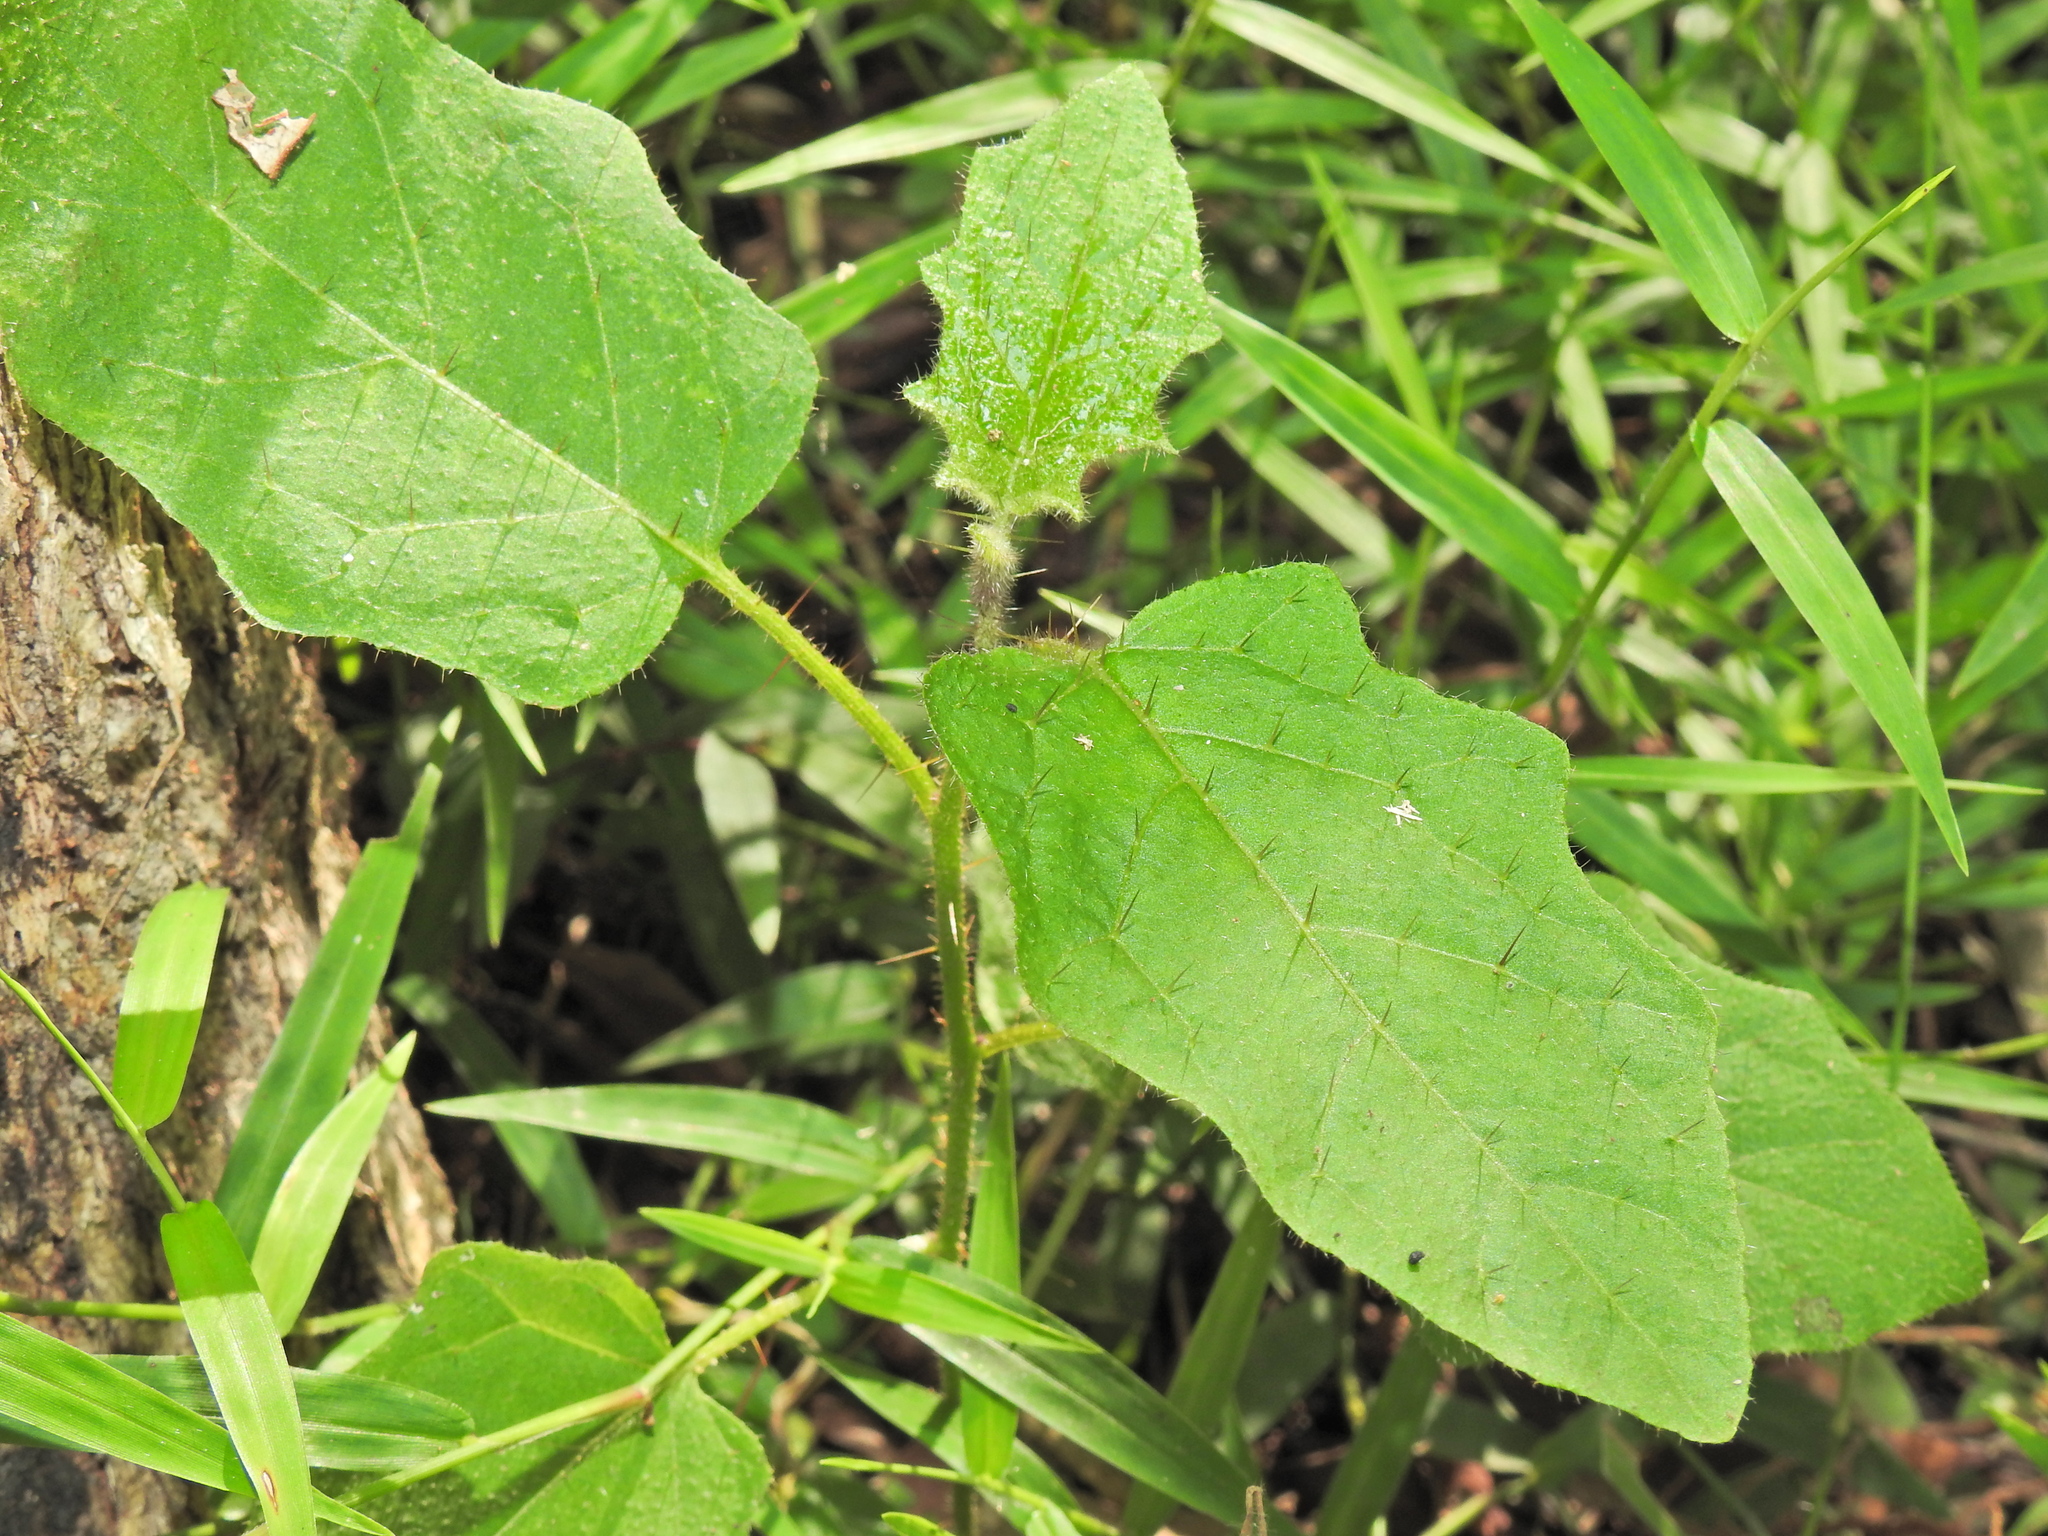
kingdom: Plantae
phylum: Tracheophyta
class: Magnoliopsida
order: Solanales
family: Solanaceae
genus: Solanum
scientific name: Solanum stelligerum
